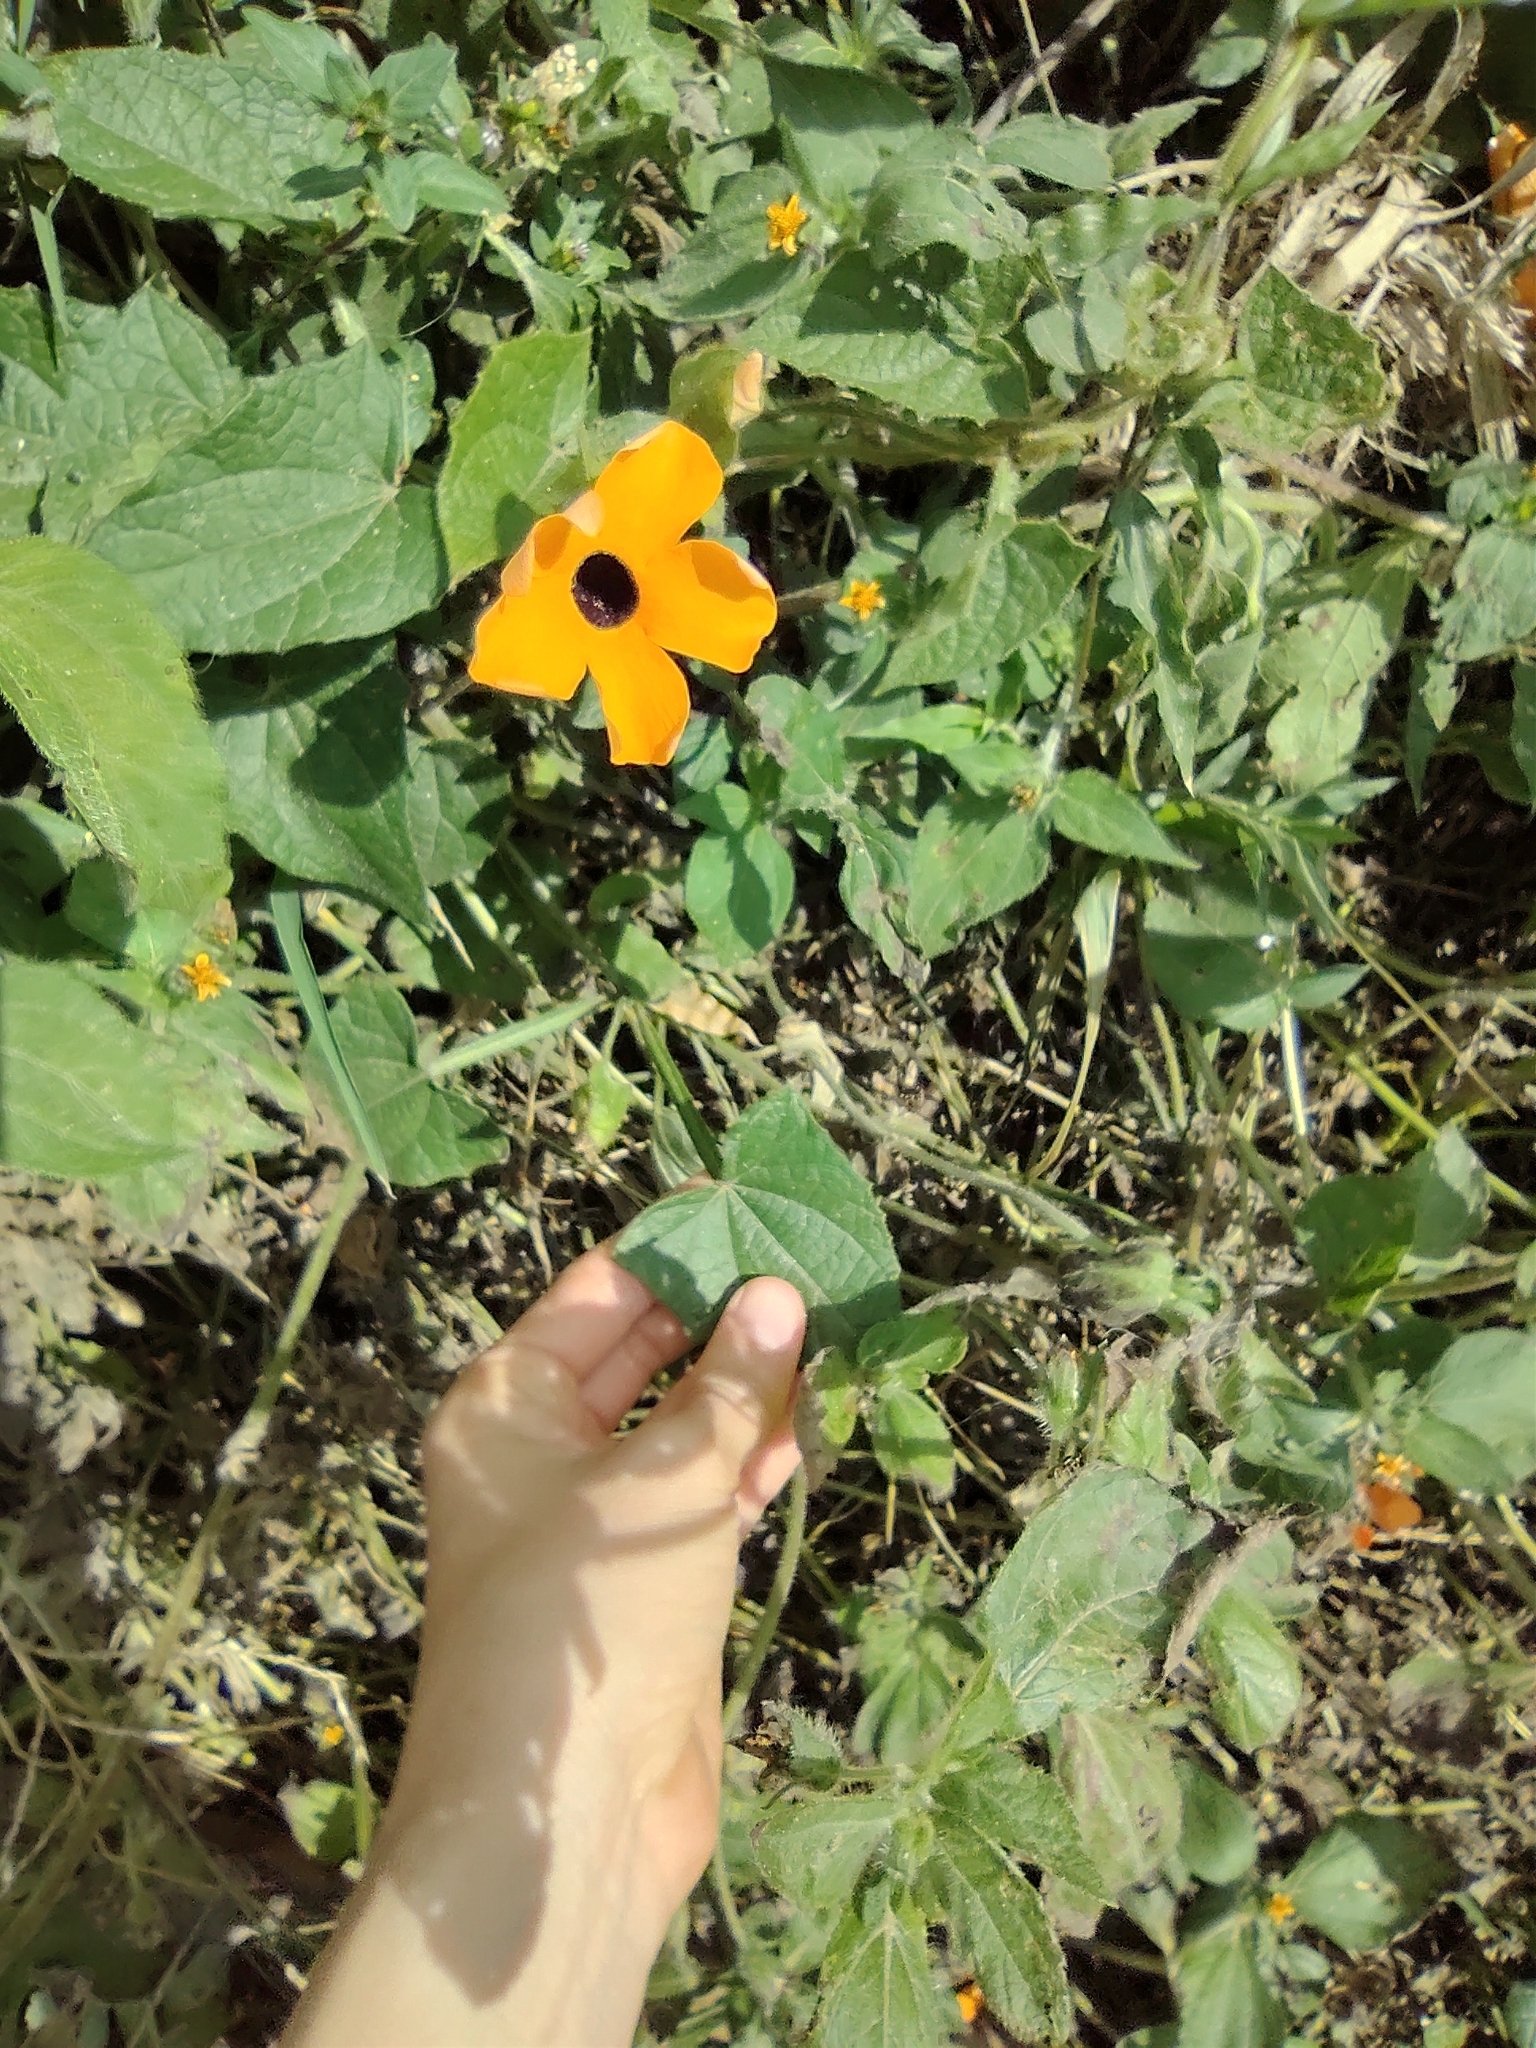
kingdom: Plantae
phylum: Tracheophyta
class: Magnoliopsida
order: Lamiales
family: Acanthaceae
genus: Thunbergia
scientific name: Thunbergia alata
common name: Blackeyed susan vine
